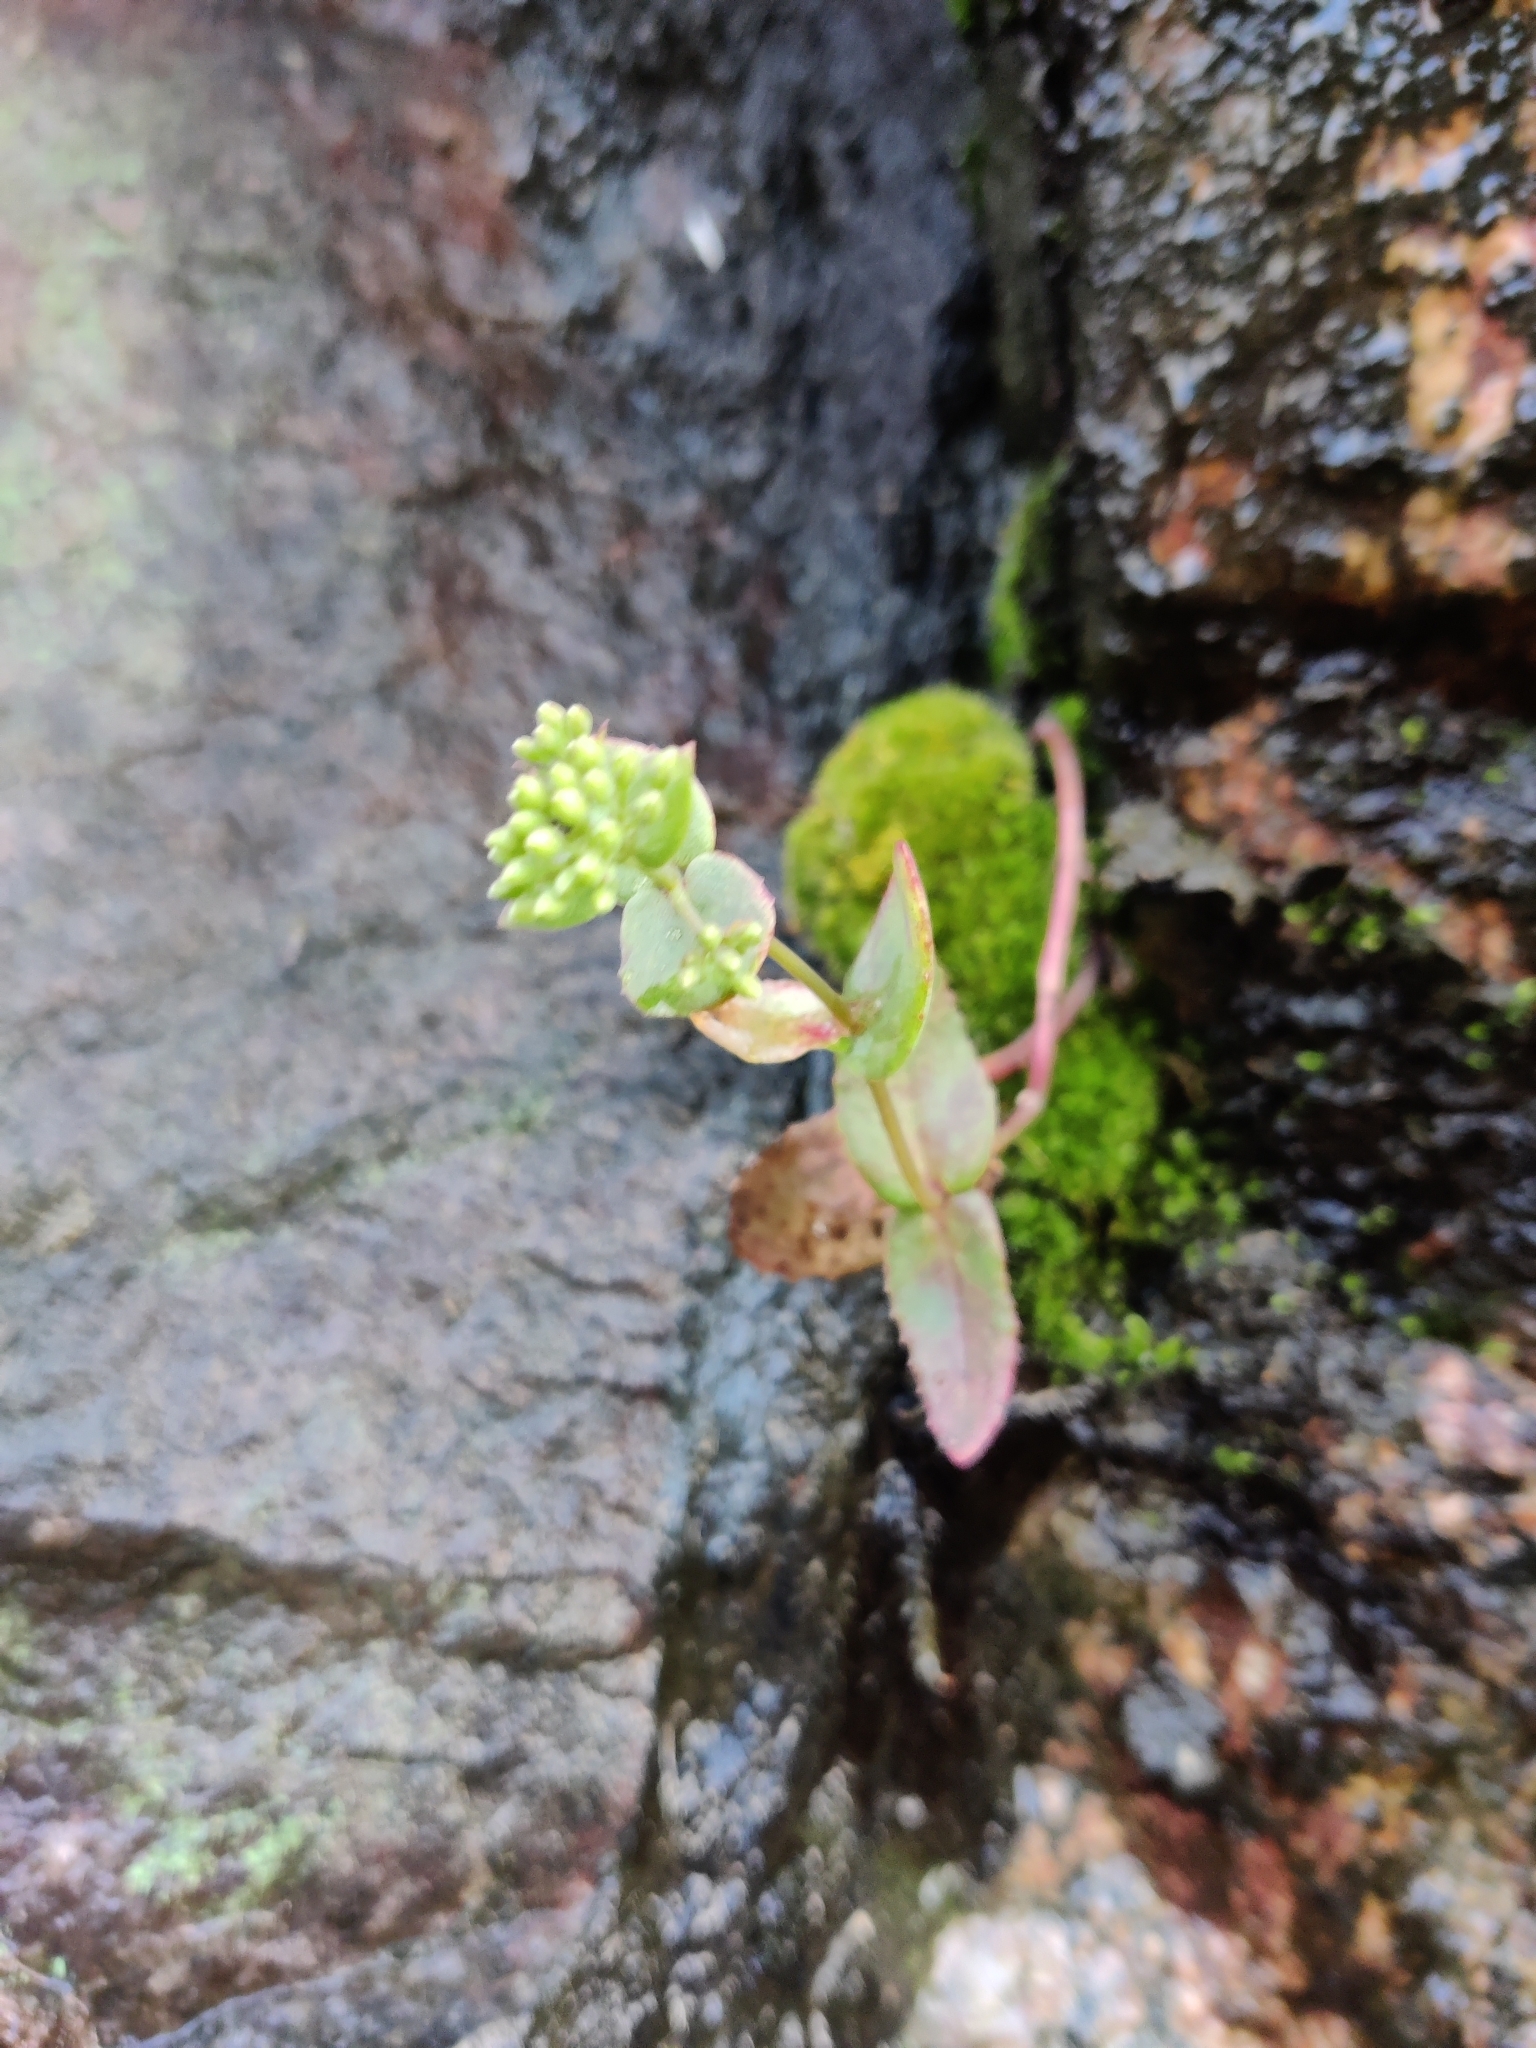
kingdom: Plantae
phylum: Tracheophyta
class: Magnoliopsida
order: Saxifragales
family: Crassulaceae
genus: Hylotelephium
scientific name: Hylotelephium maximum
